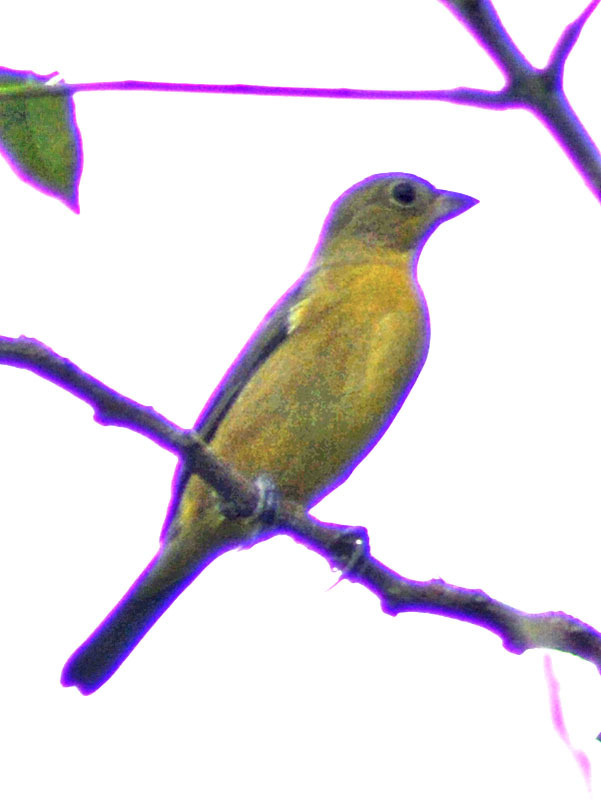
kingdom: Animalia
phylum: Chordata
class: Aves
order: Passeriformes
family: Cardinalidae
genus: Passerina
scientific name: Passerina ciris
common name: Painted bunting
